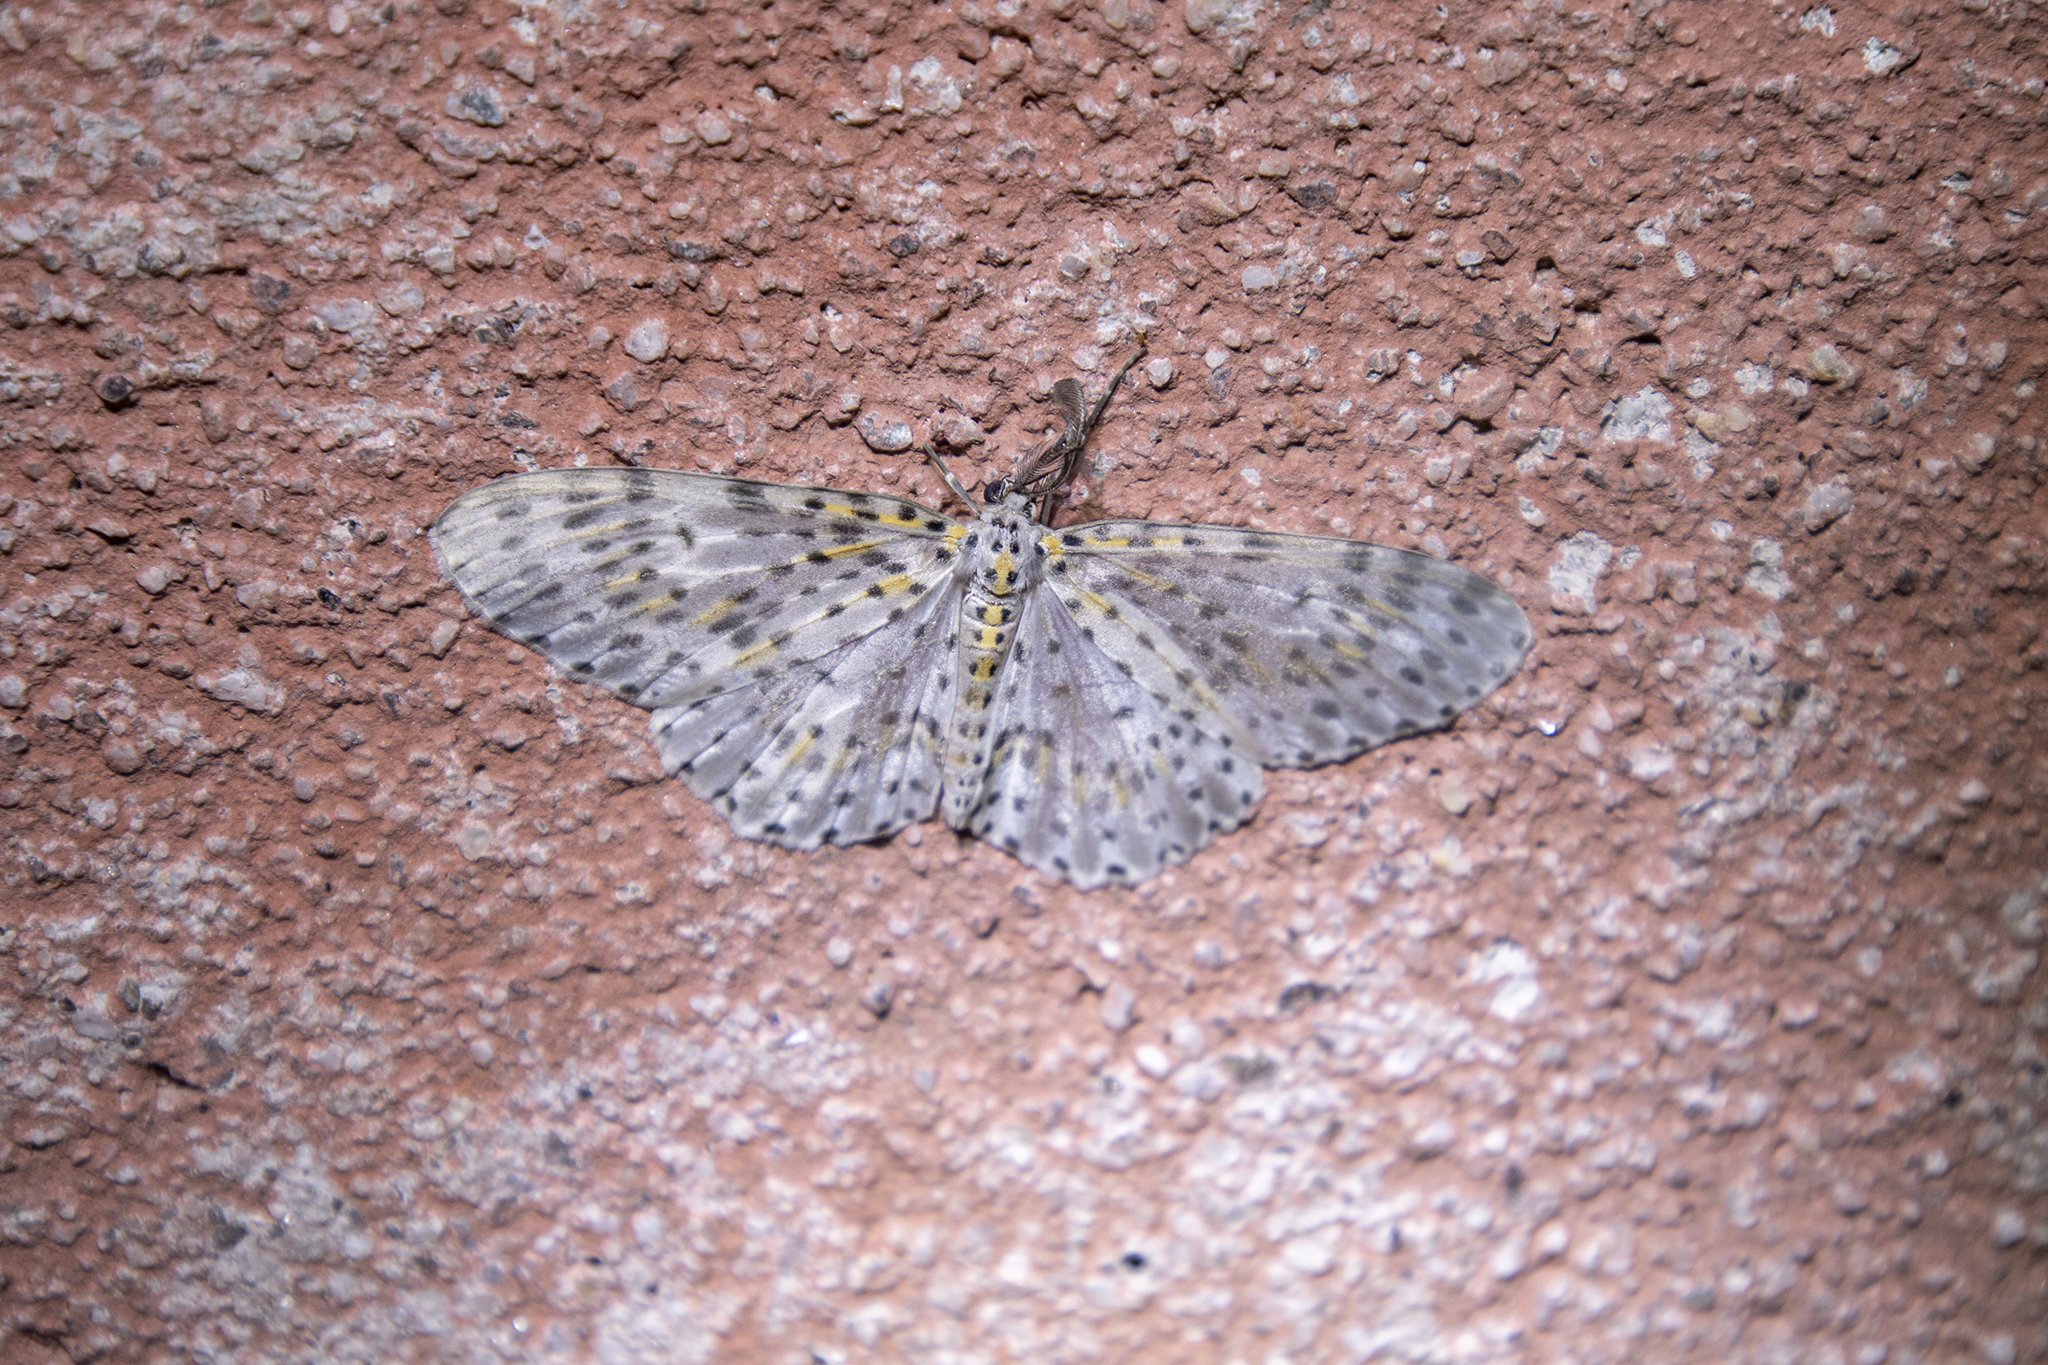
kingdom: Animalia
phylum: Arthropoda
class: Insecta
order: Lepidoptera
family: Geometridae
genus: Metapercnia
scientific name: Metapercnia ductaria
